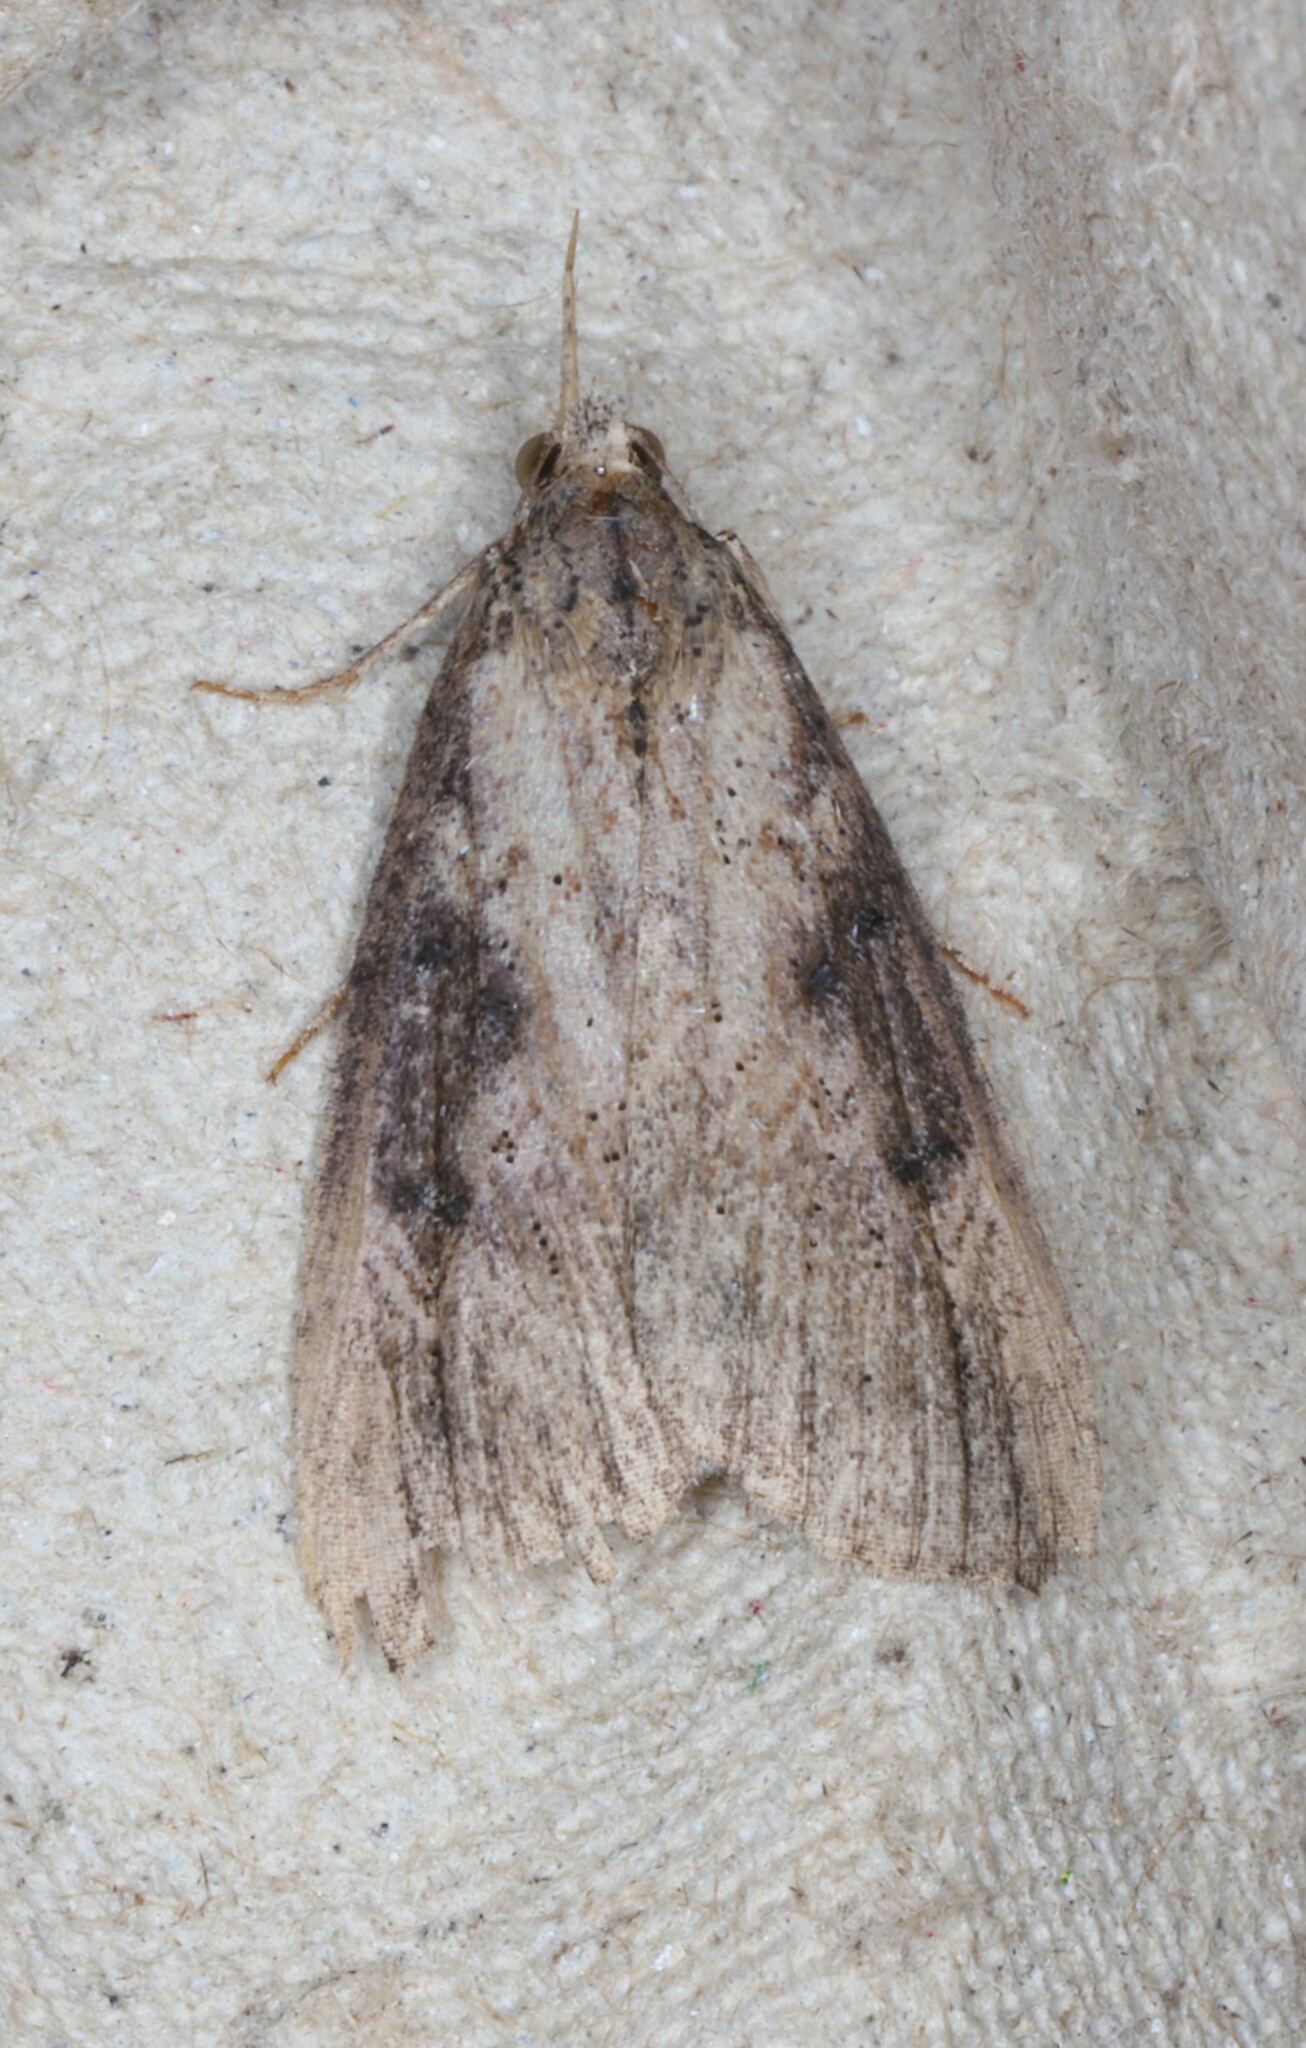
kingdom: Animalia
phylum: Arthropoda
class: Insecta
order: Lepidoptera
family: Erebidae
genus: Hypena
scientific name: Hypena humuli
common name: Hop vine snout
